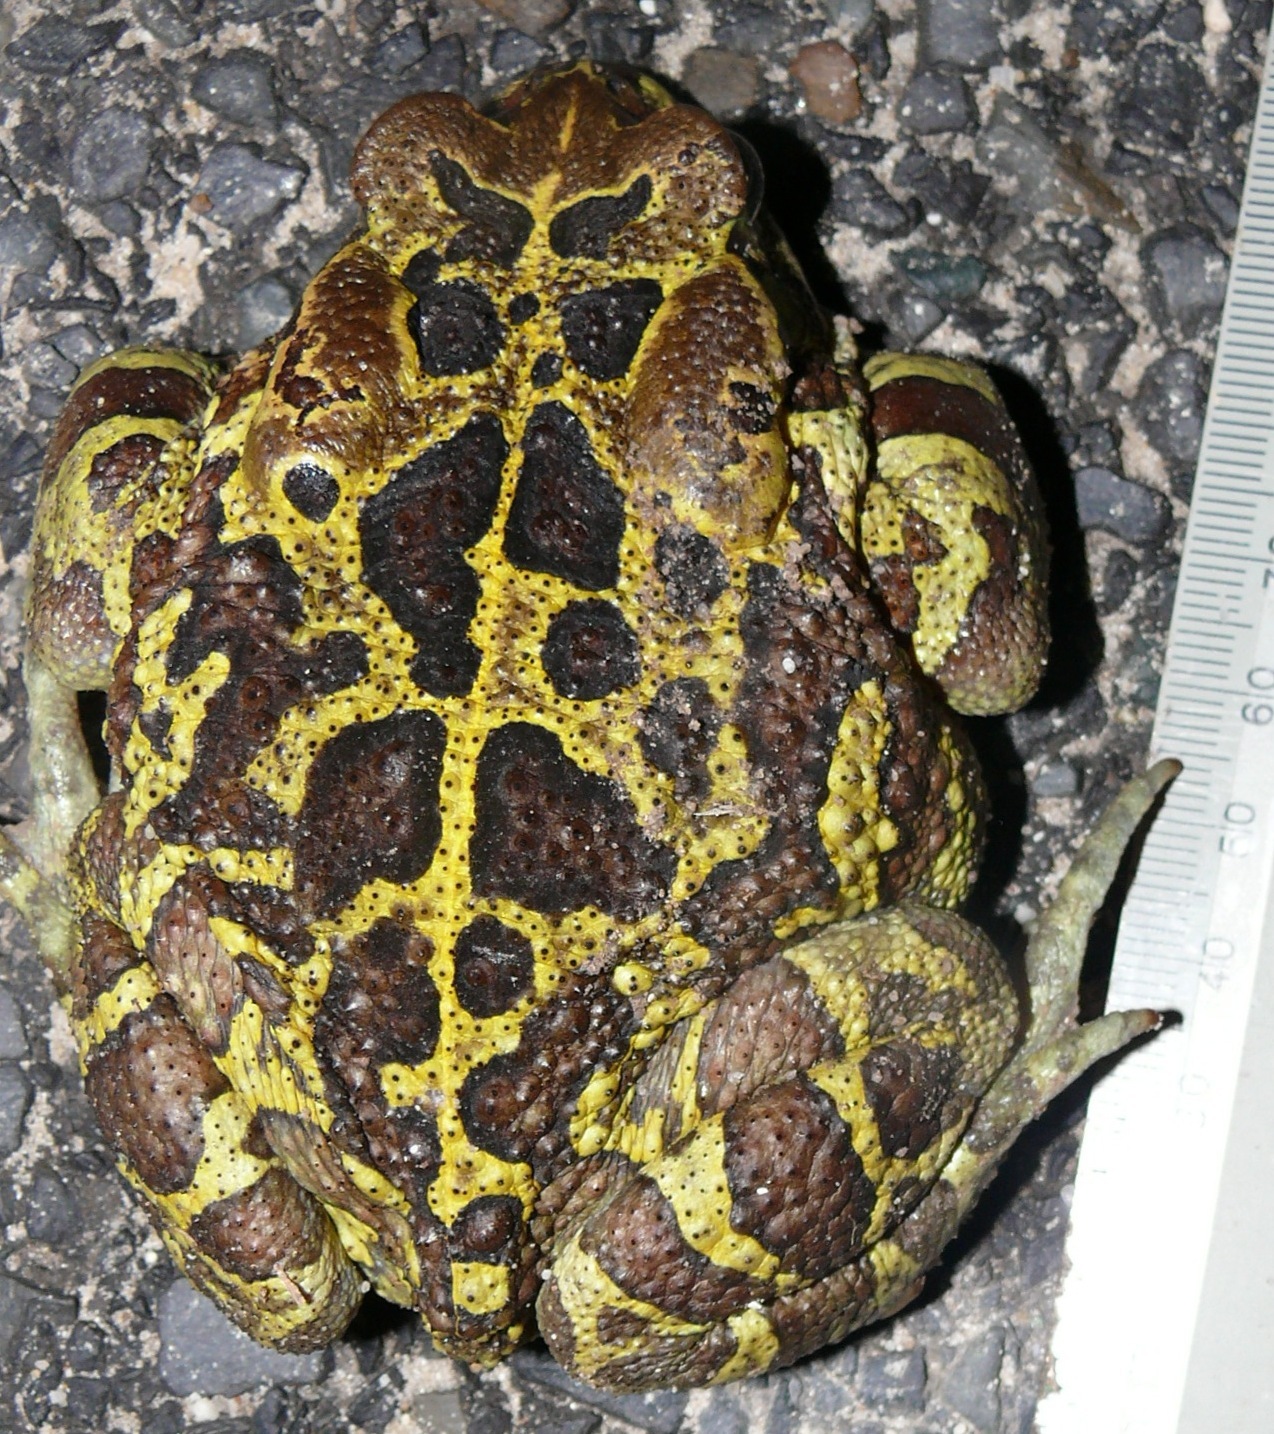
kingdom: Animalia
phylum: Chordata
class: Amphibia
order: Anura
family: Bufonidae
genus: Sclerophrys
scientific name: Sclerophrys pantherina
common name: Panther toad
